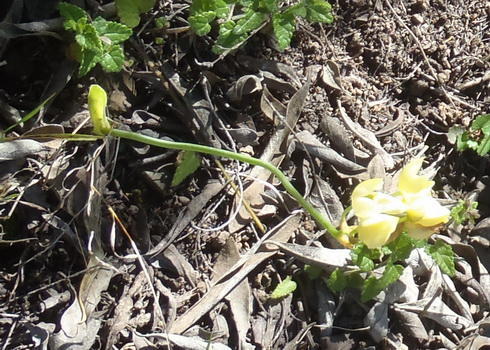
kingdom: Plantae
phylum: Tracheophyta
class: Liliopsida
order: Asparagales
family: Asparagaceae
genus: Ornithogalum
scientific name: Ornithogalum dubium
